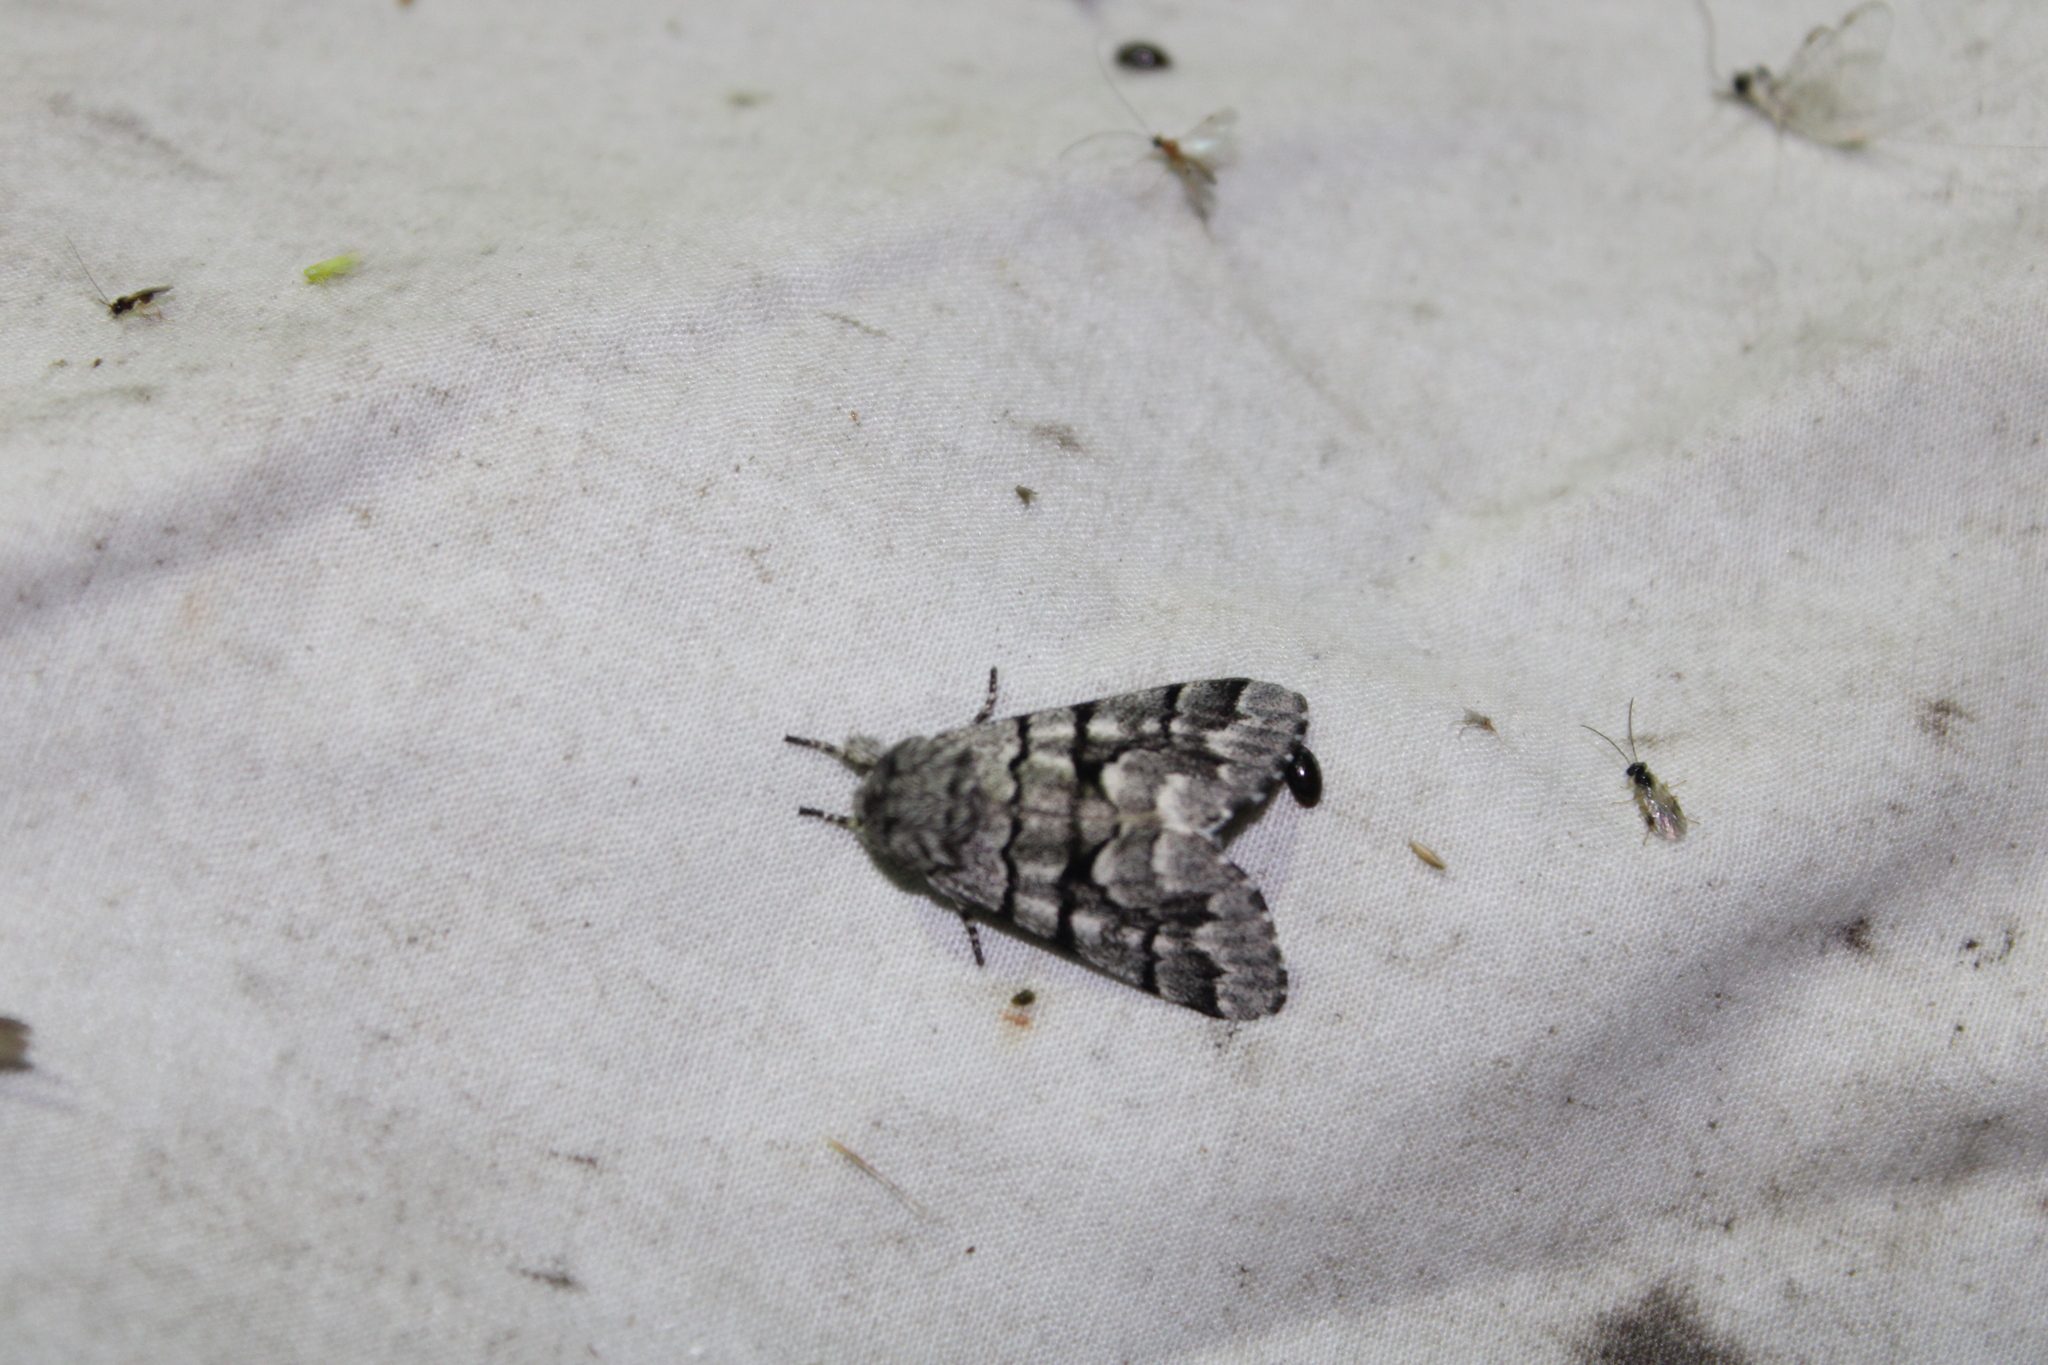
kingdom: Animalia
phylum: Arthropoda
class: Insecta
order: Lepidoptera
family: Noctuidae
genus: Panthea
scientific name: Panthea furcilla
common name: Eastern panthea moth
